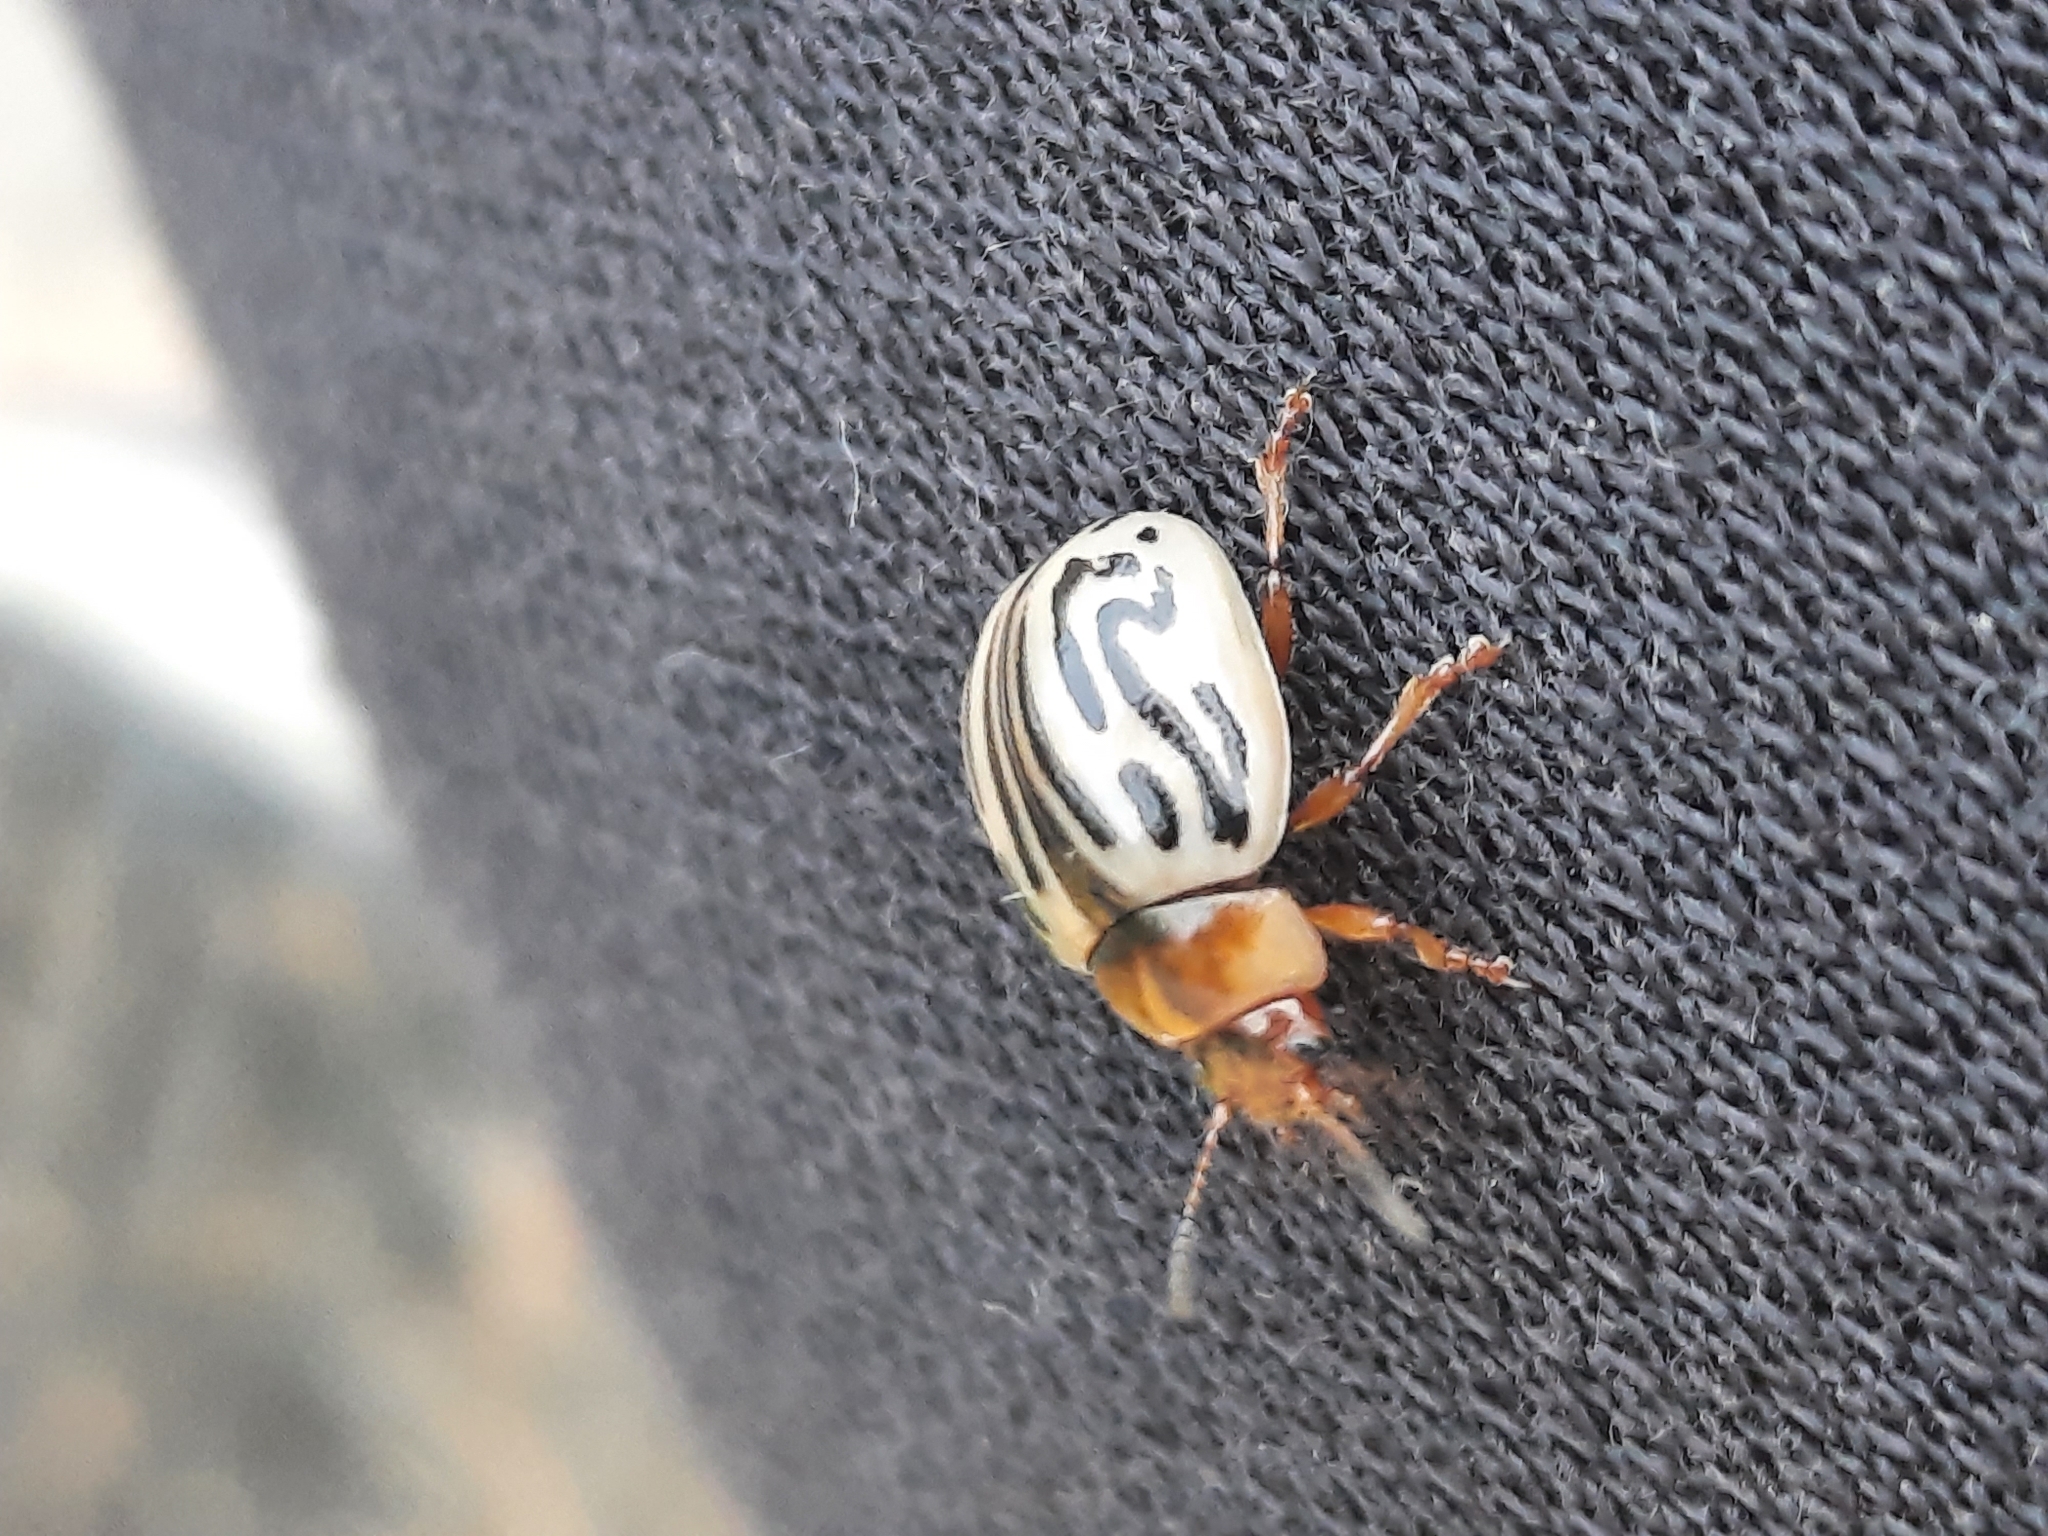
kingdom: Animalia
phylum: Arthropoda
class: Insecta
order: Coleoptera
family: Chrysomelidae
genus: Calligrapha
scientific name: Calligrapha
